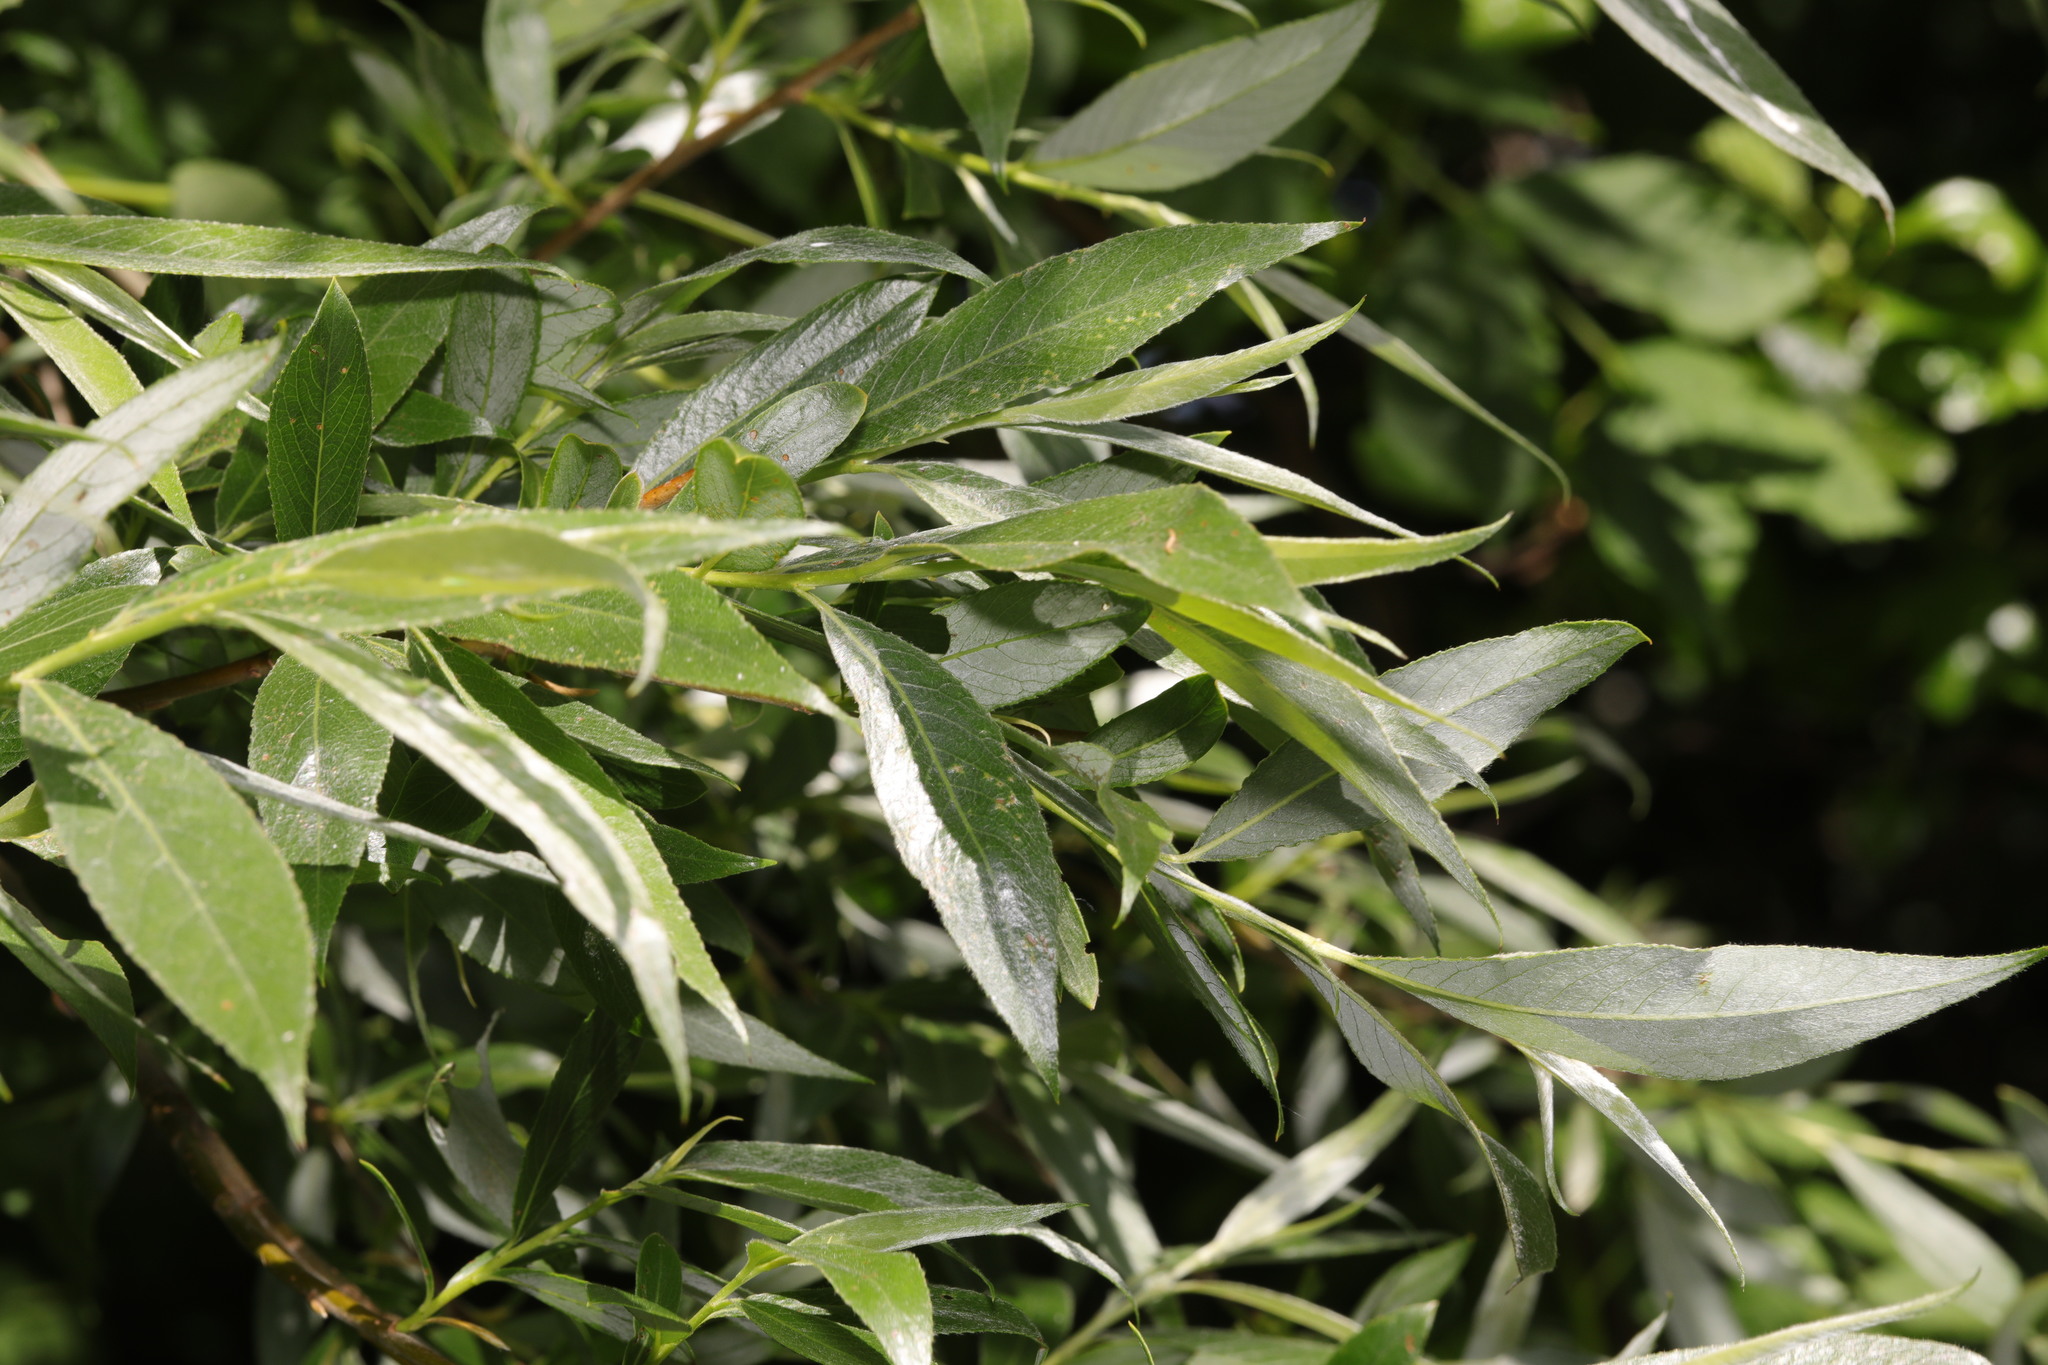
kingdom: Plantae
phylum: Tracheophyta
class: Magnoliopsida
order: Malpighiales
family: Salicaceae
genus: Salix
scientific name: Salix alba
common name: White willow
